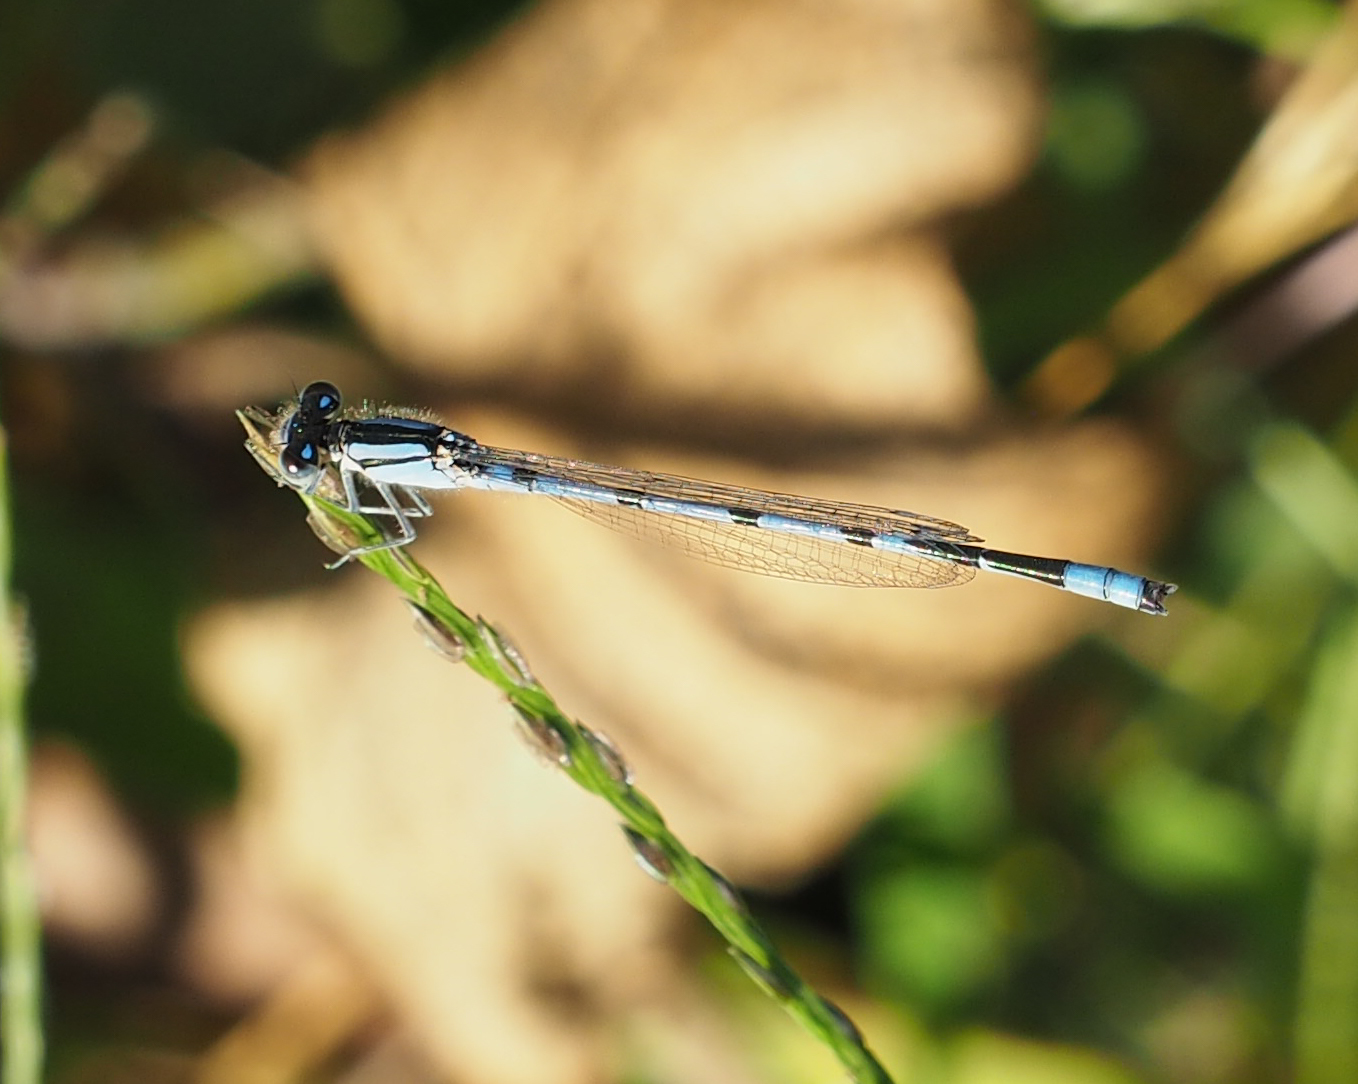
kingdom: Animalia
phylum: Arthropoda
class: Insecta
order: Odonata
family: Coenagrionidae
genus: Enallagma
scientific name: Enallagma civile
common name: Damselfly
